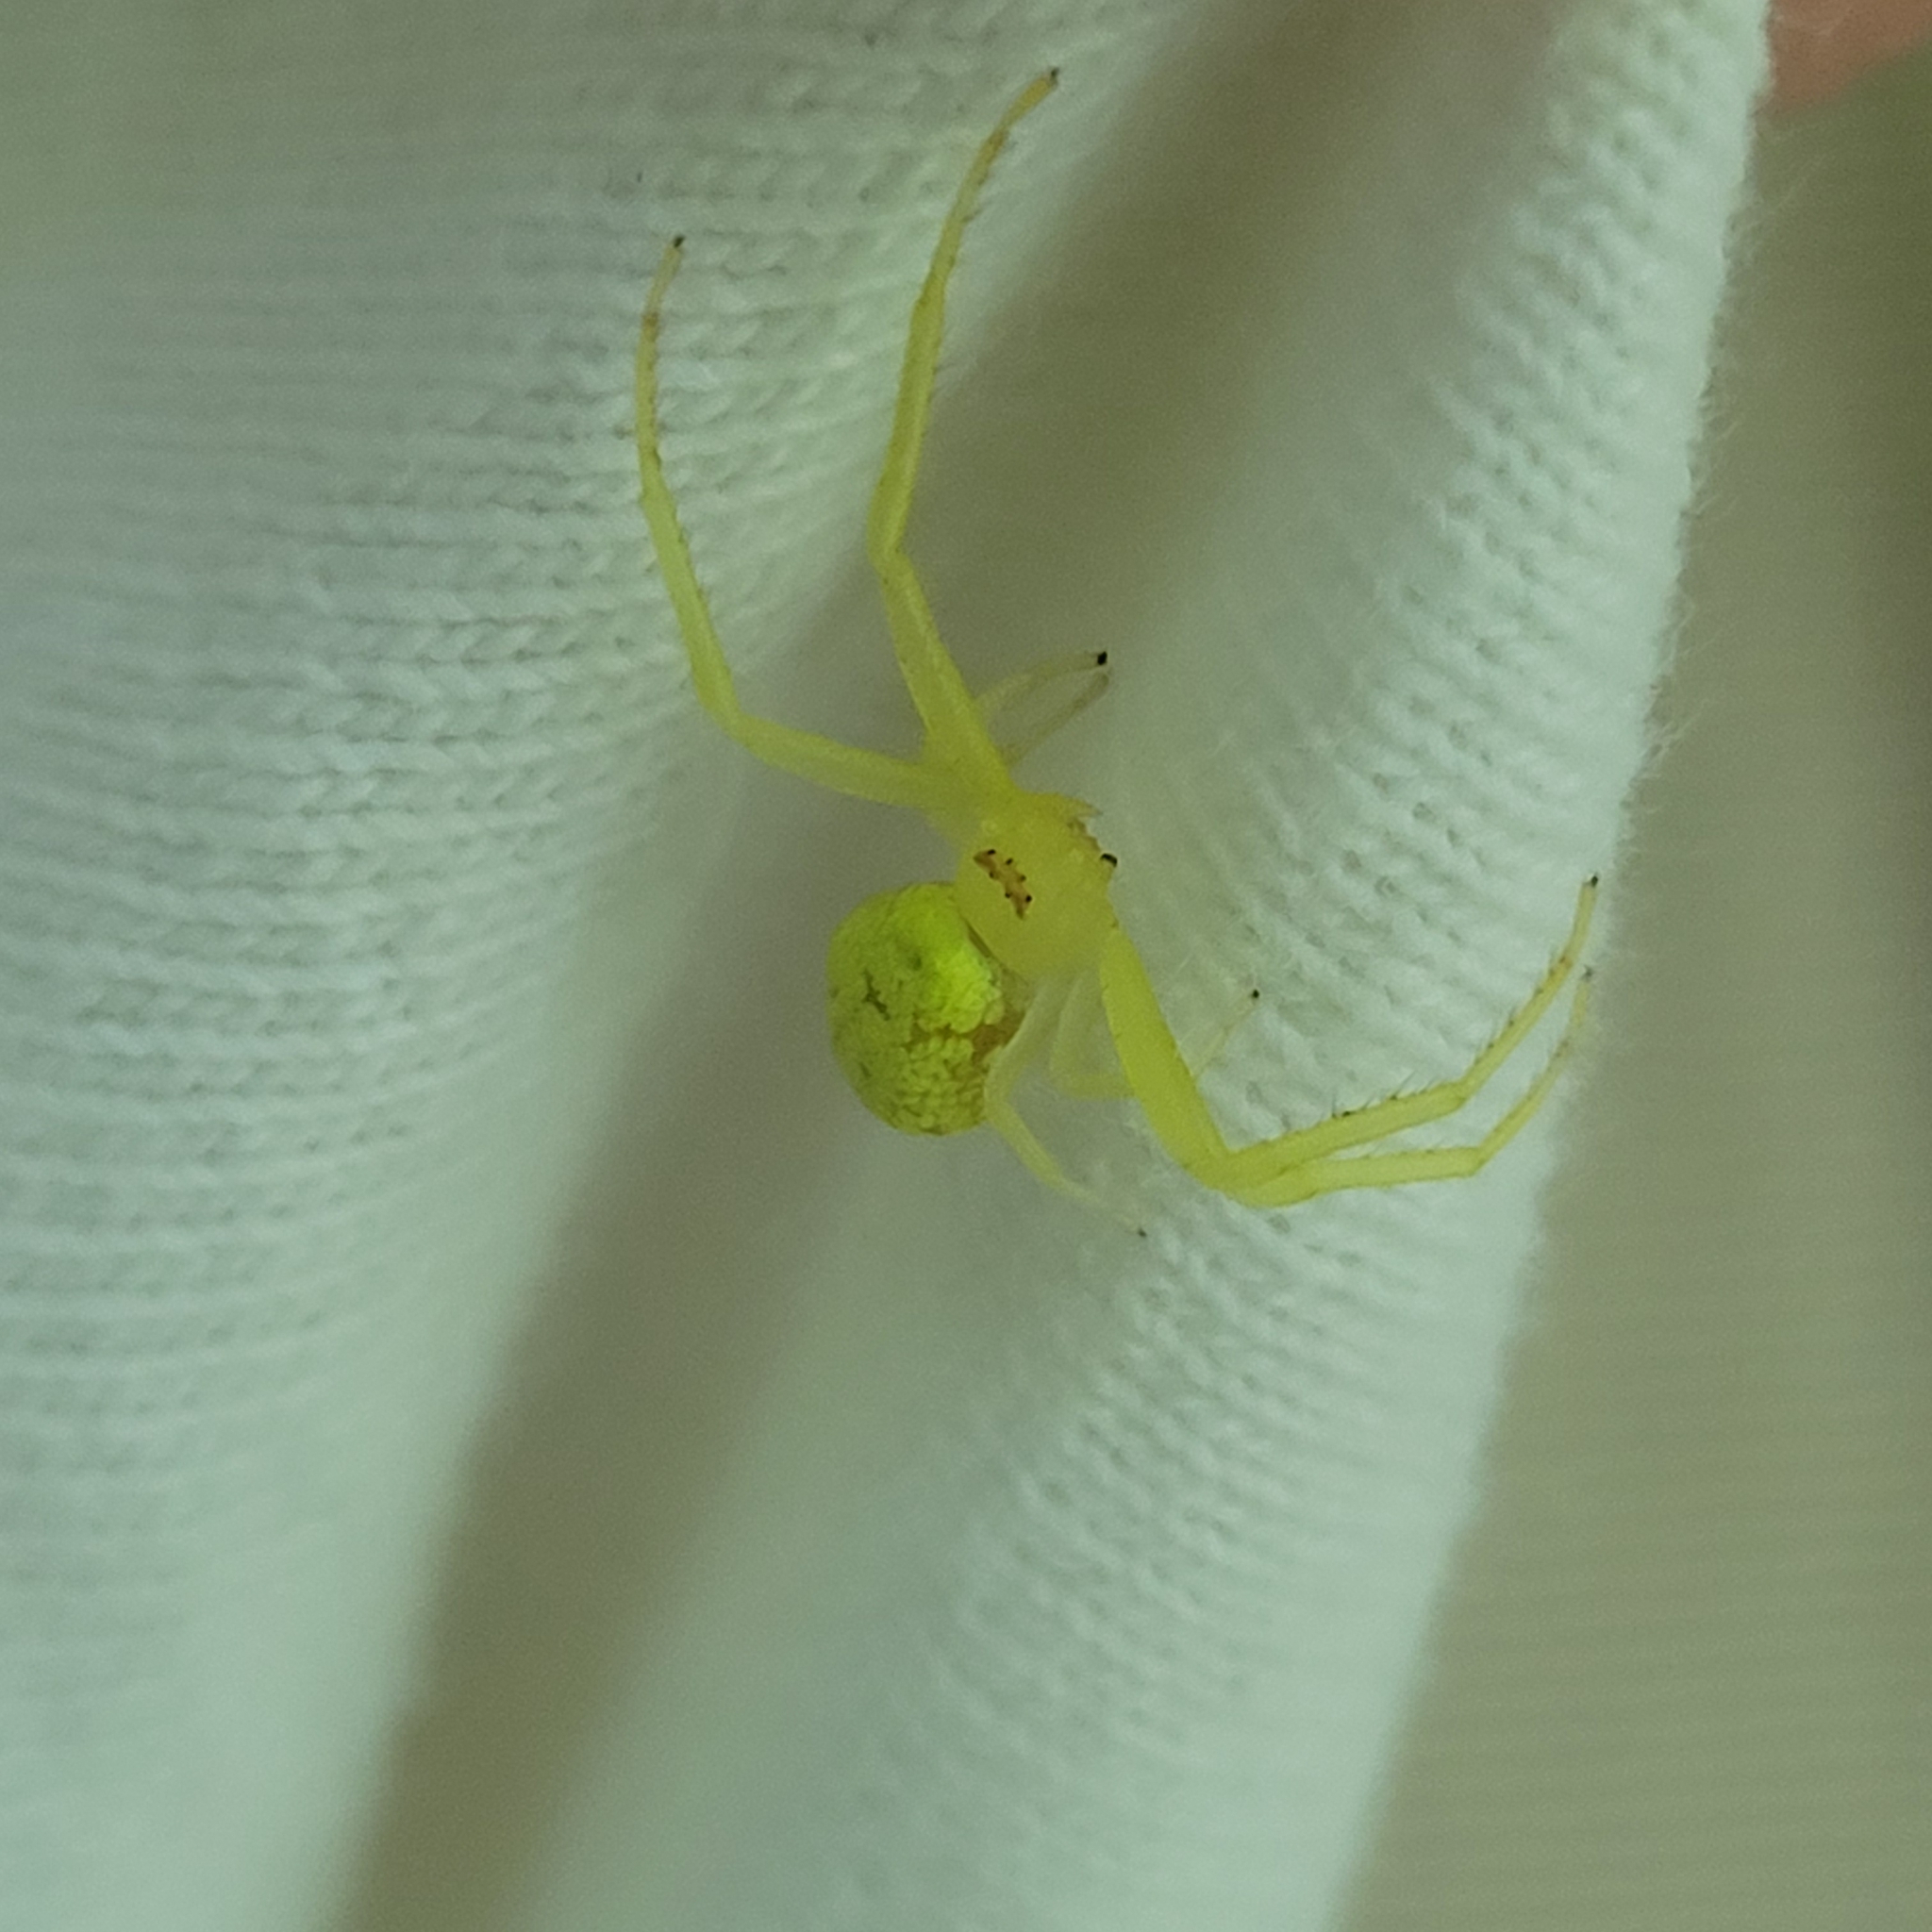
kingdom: Animalia
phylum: Arthropoda
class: Arachnida
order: Araneae
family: Thomisidae
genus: Misumessus
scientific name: Misumessus oblongus
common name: American green crab spider
